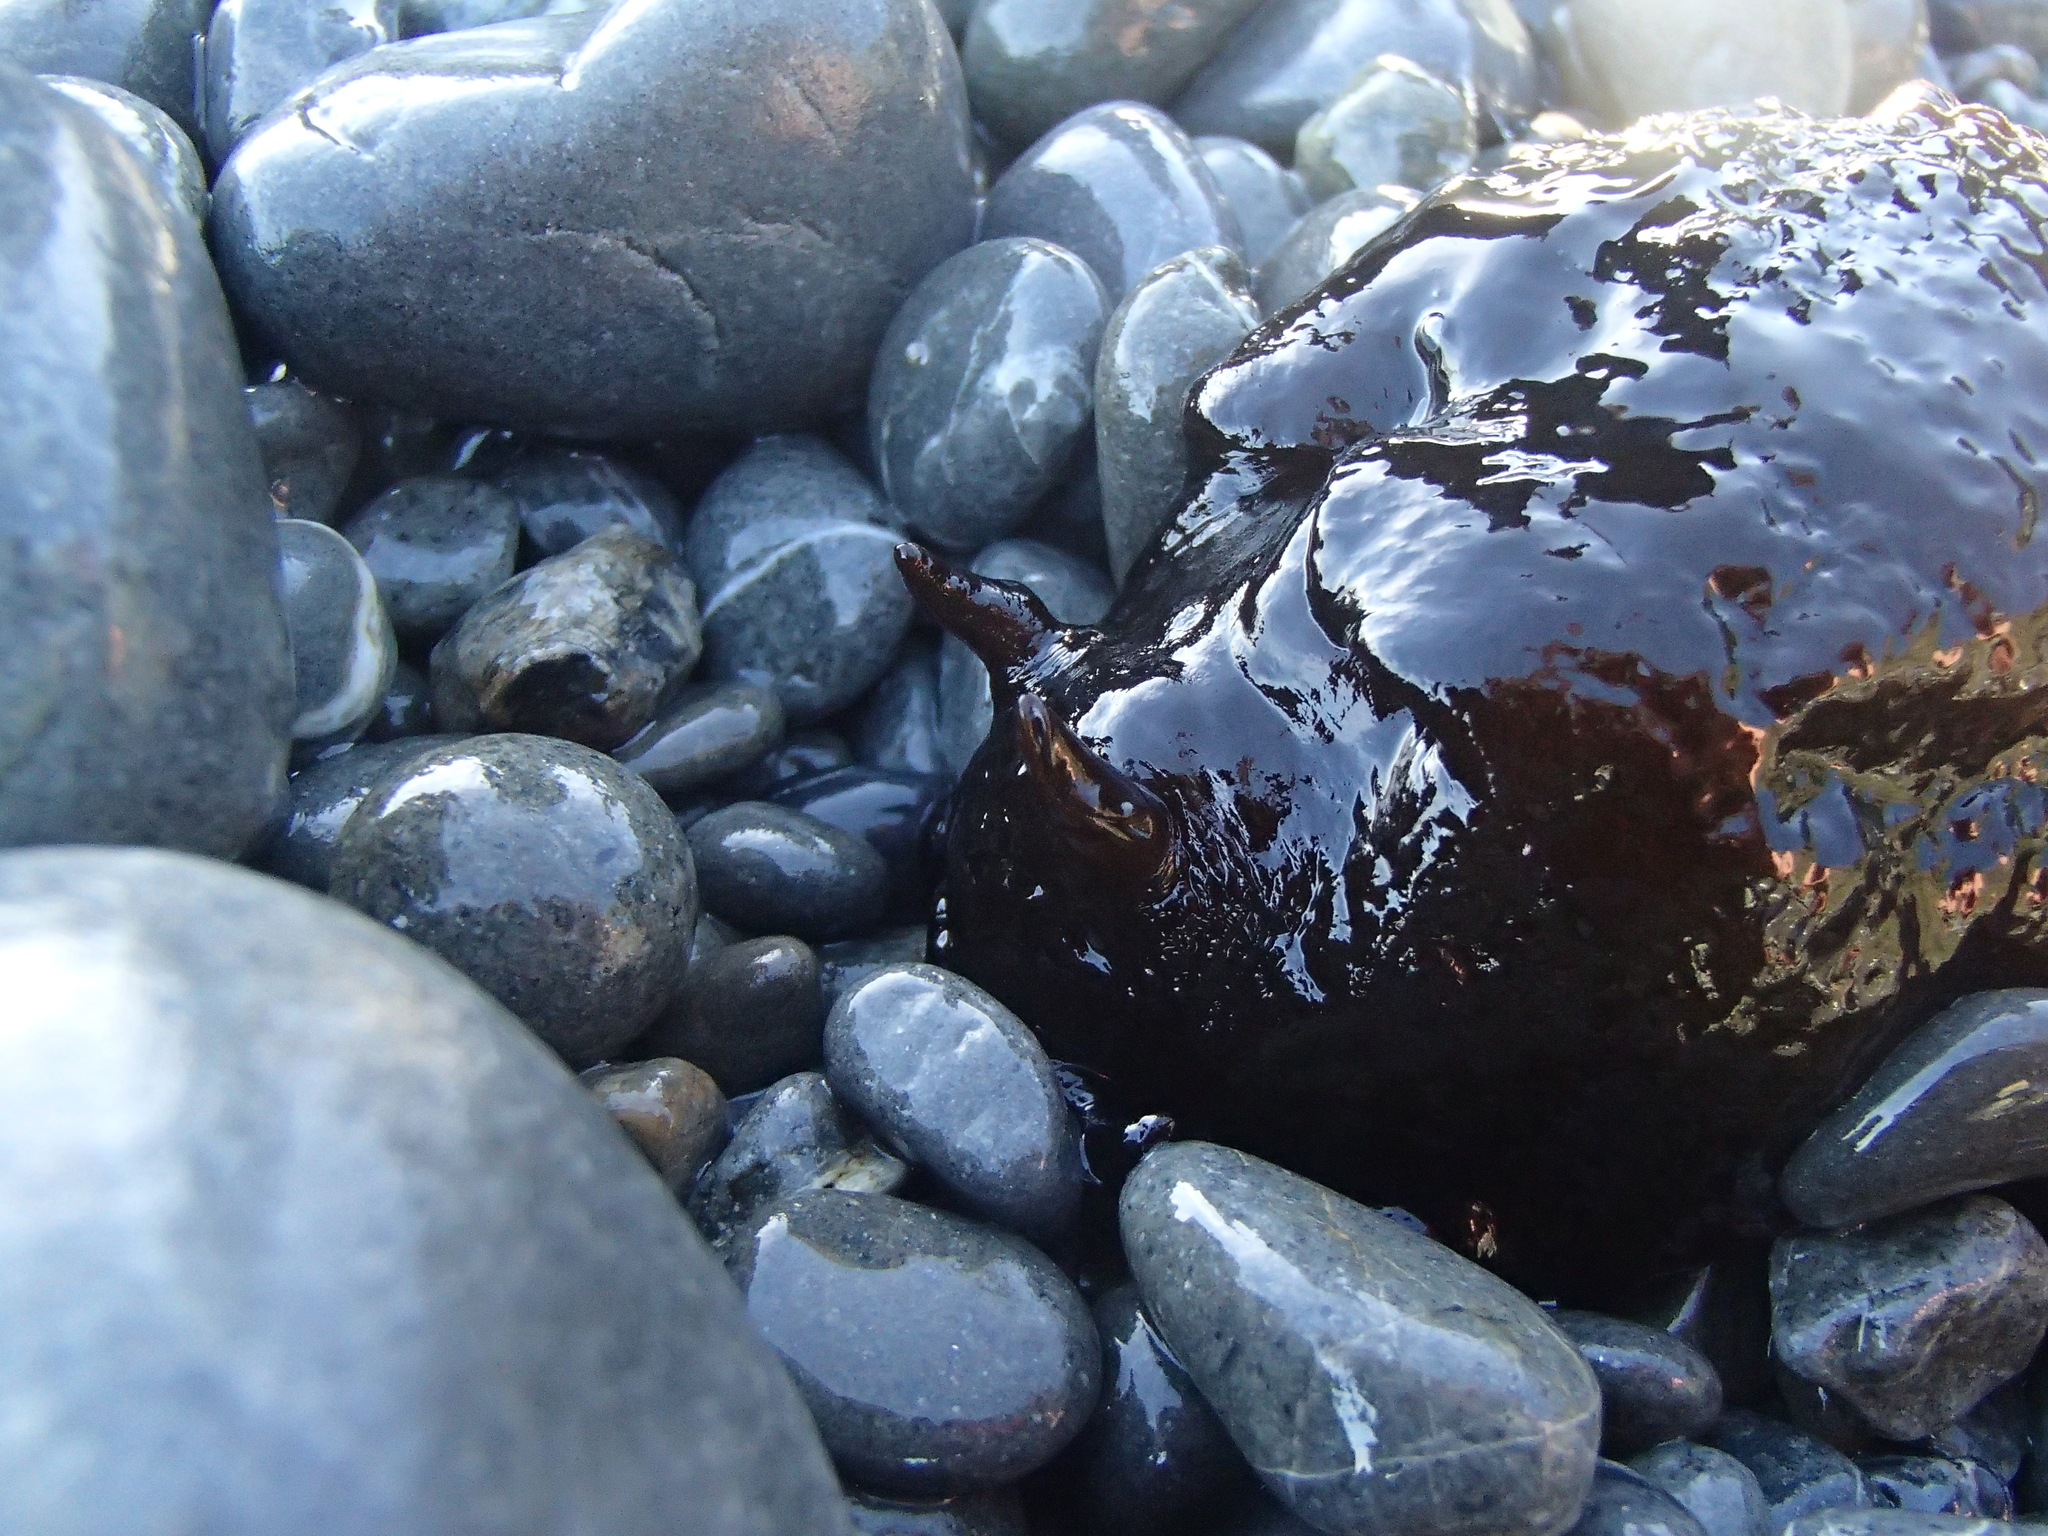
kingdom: Animalia
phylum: Mollusca
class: Gastropoda
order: Aplysiida
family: Aplysiidae
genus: Aplysia
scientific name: Aplysia juliana
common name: Walking sea hare
